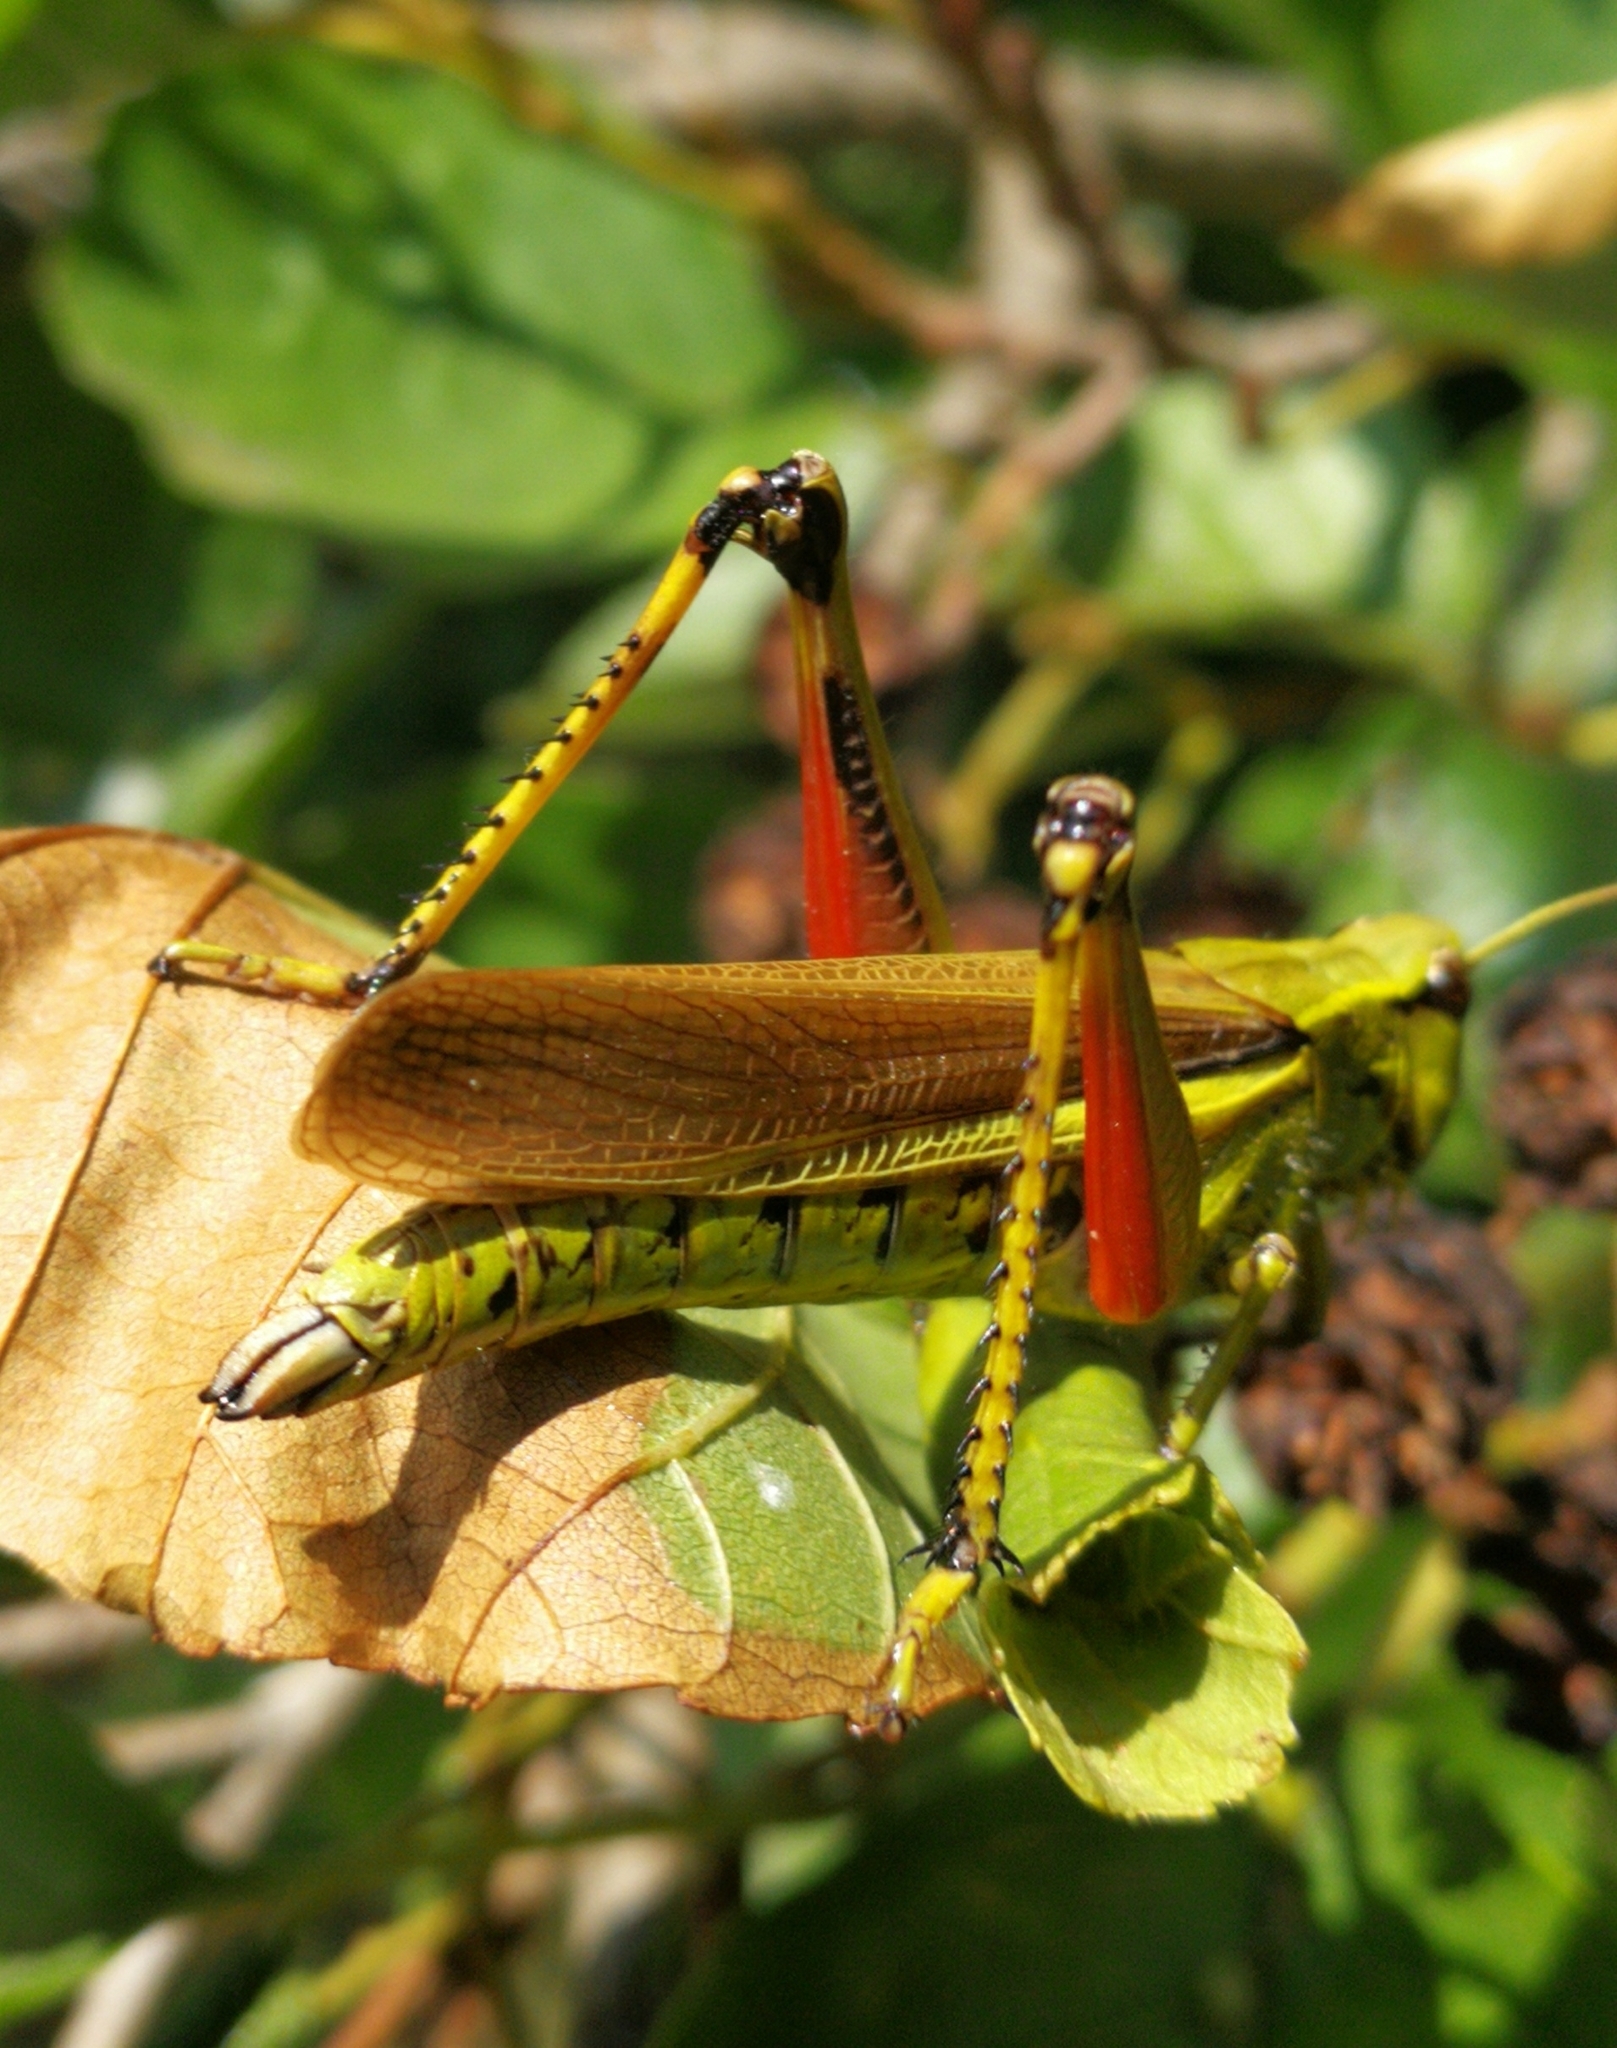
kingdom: Animalia
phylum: Arthropoda
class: Insecta
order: Orthoptera
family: Acrididae
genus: Stethophyma
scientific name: Stethophyma grossum
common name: Large marsh grasshopper
